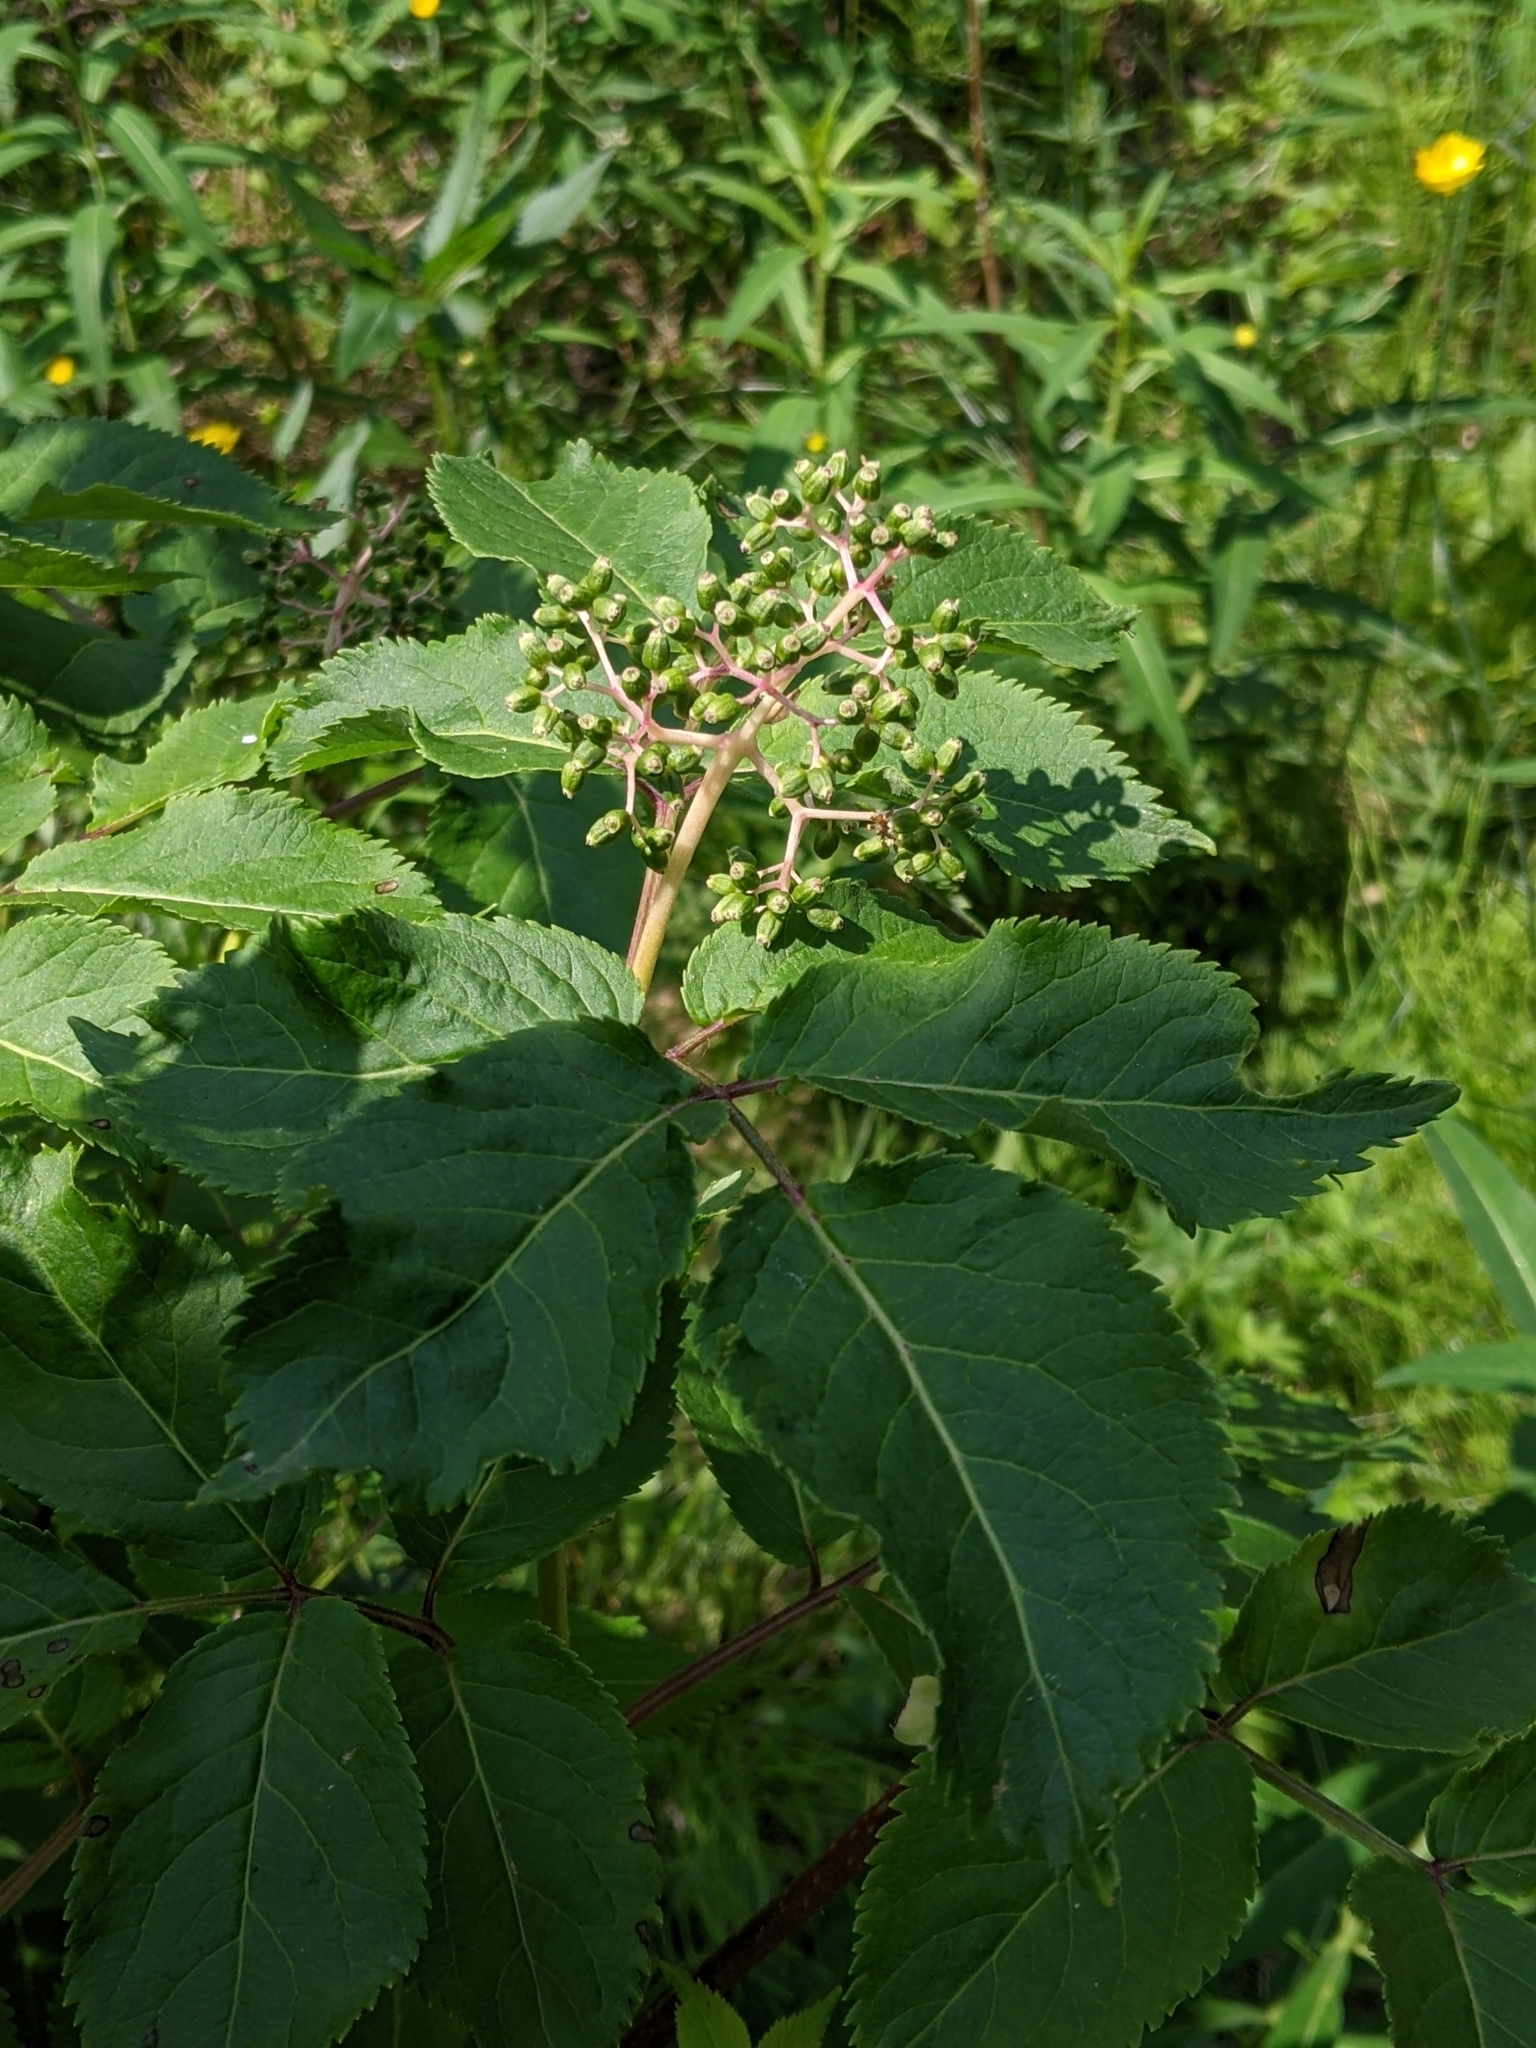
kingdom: Plantae
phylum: Tracheophyta
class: Magnoliopsida
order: Dipsacales
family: Viburnaceae
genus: Sambucus
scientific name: Sambucus racemosa
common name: Red-berried elder
